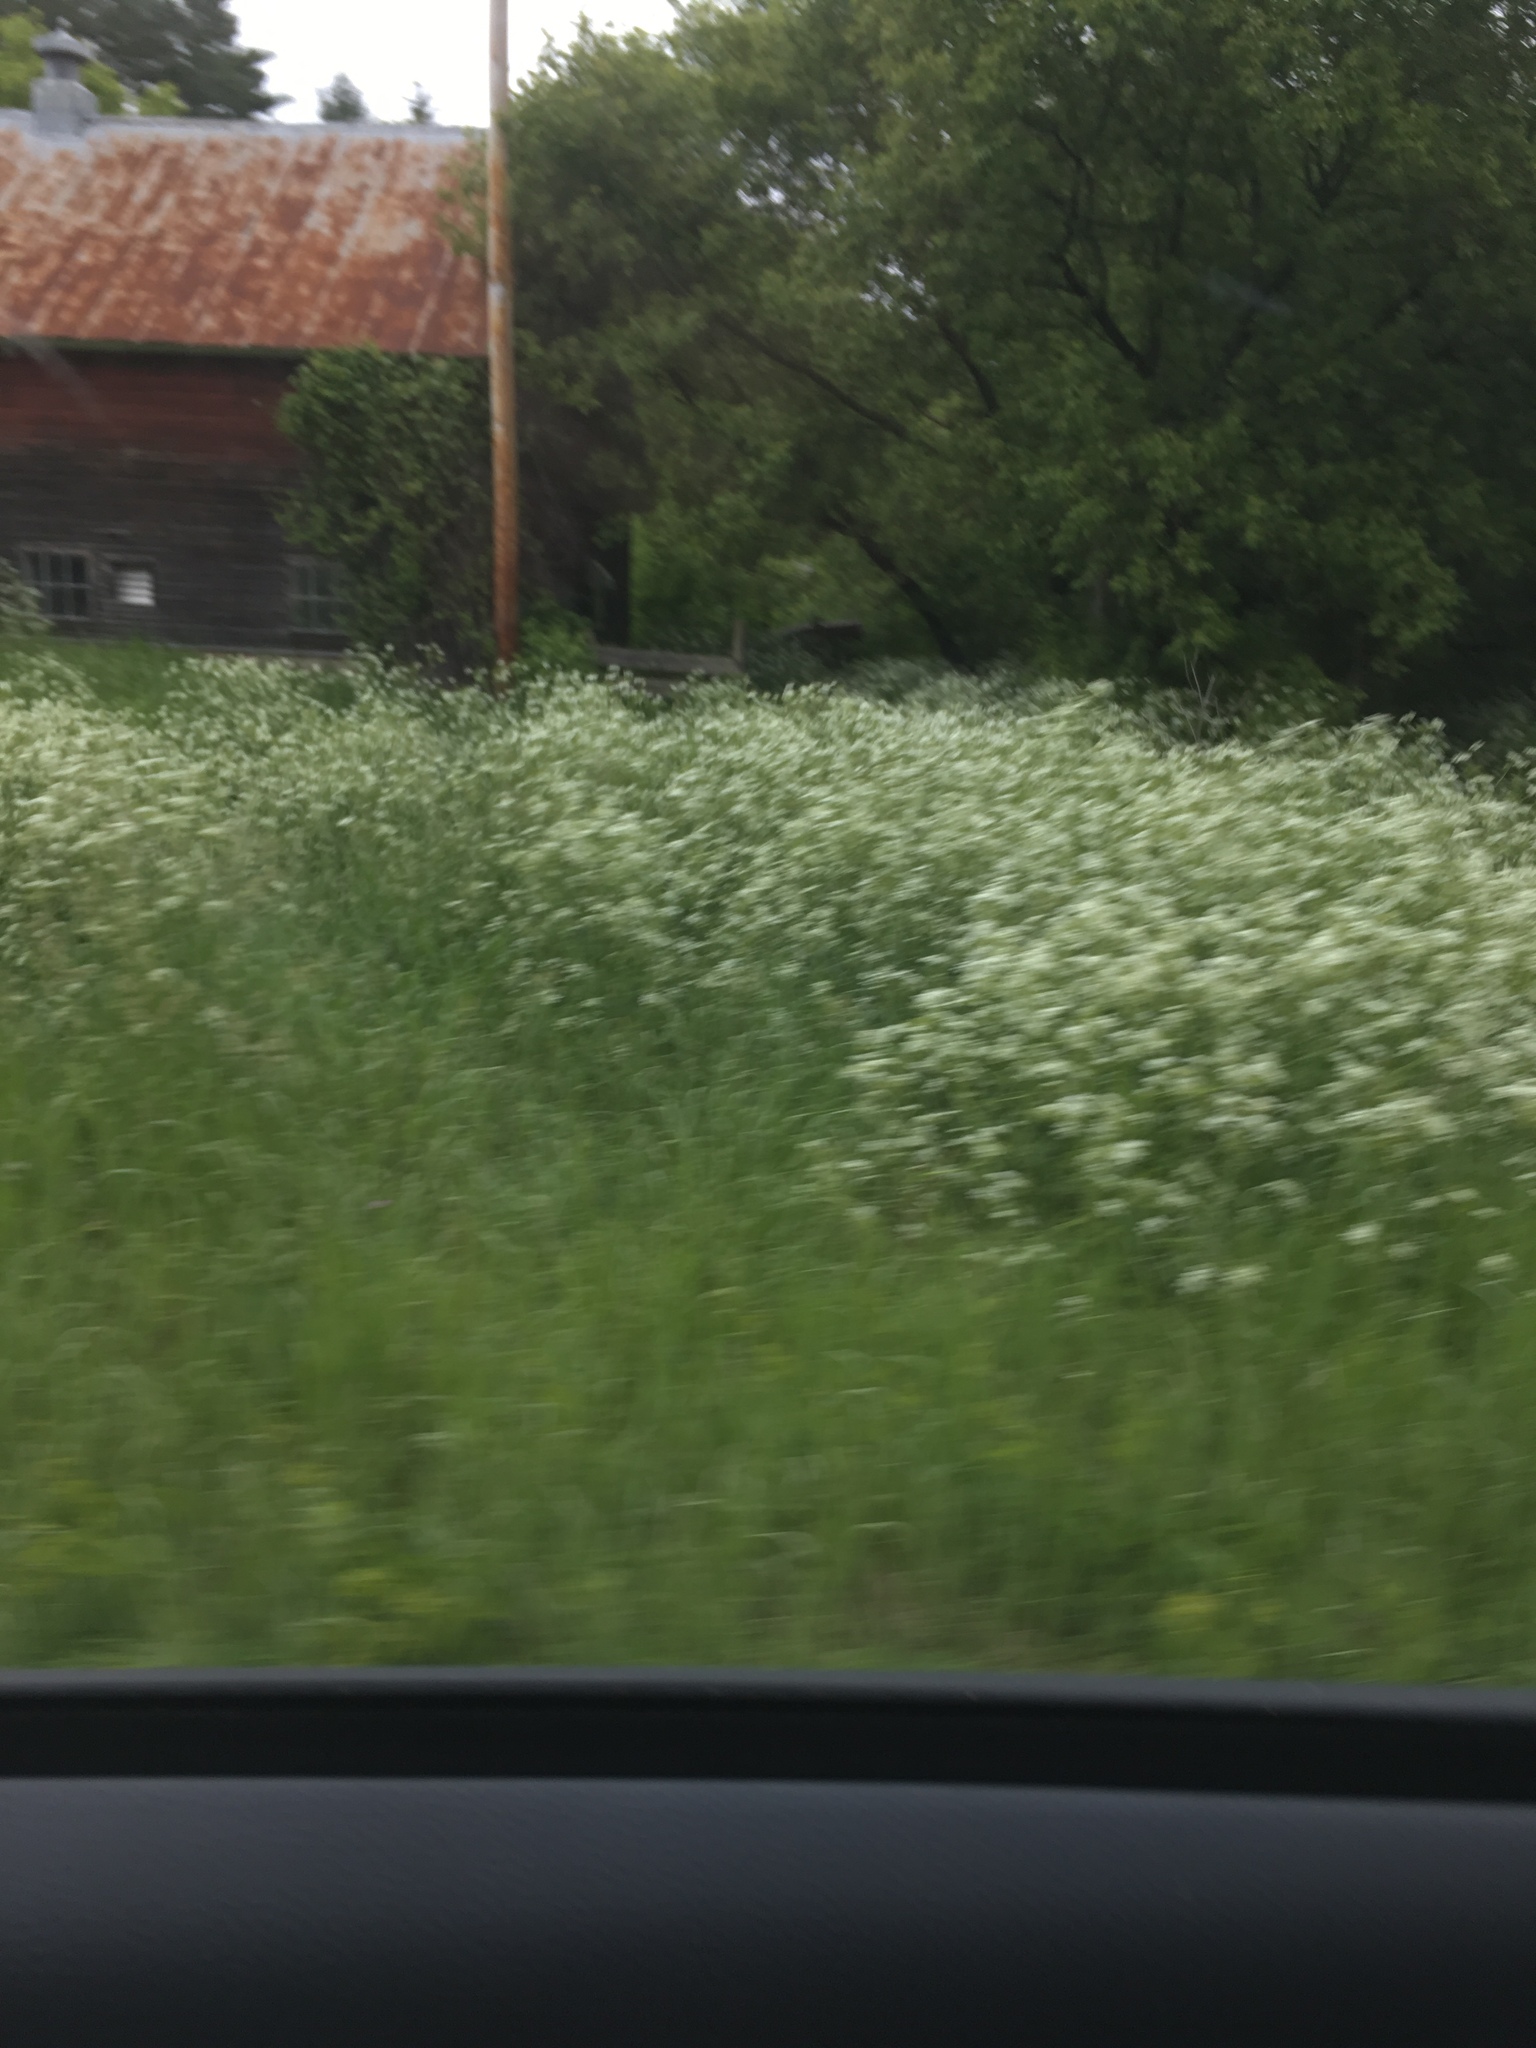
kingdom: Plantae
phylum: Tracheophyta
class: Magnoliopsida
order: Apiales
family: Apiaceae
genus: Anthriscus
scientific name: Anthriscus sylvestris
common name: Cow parsley
